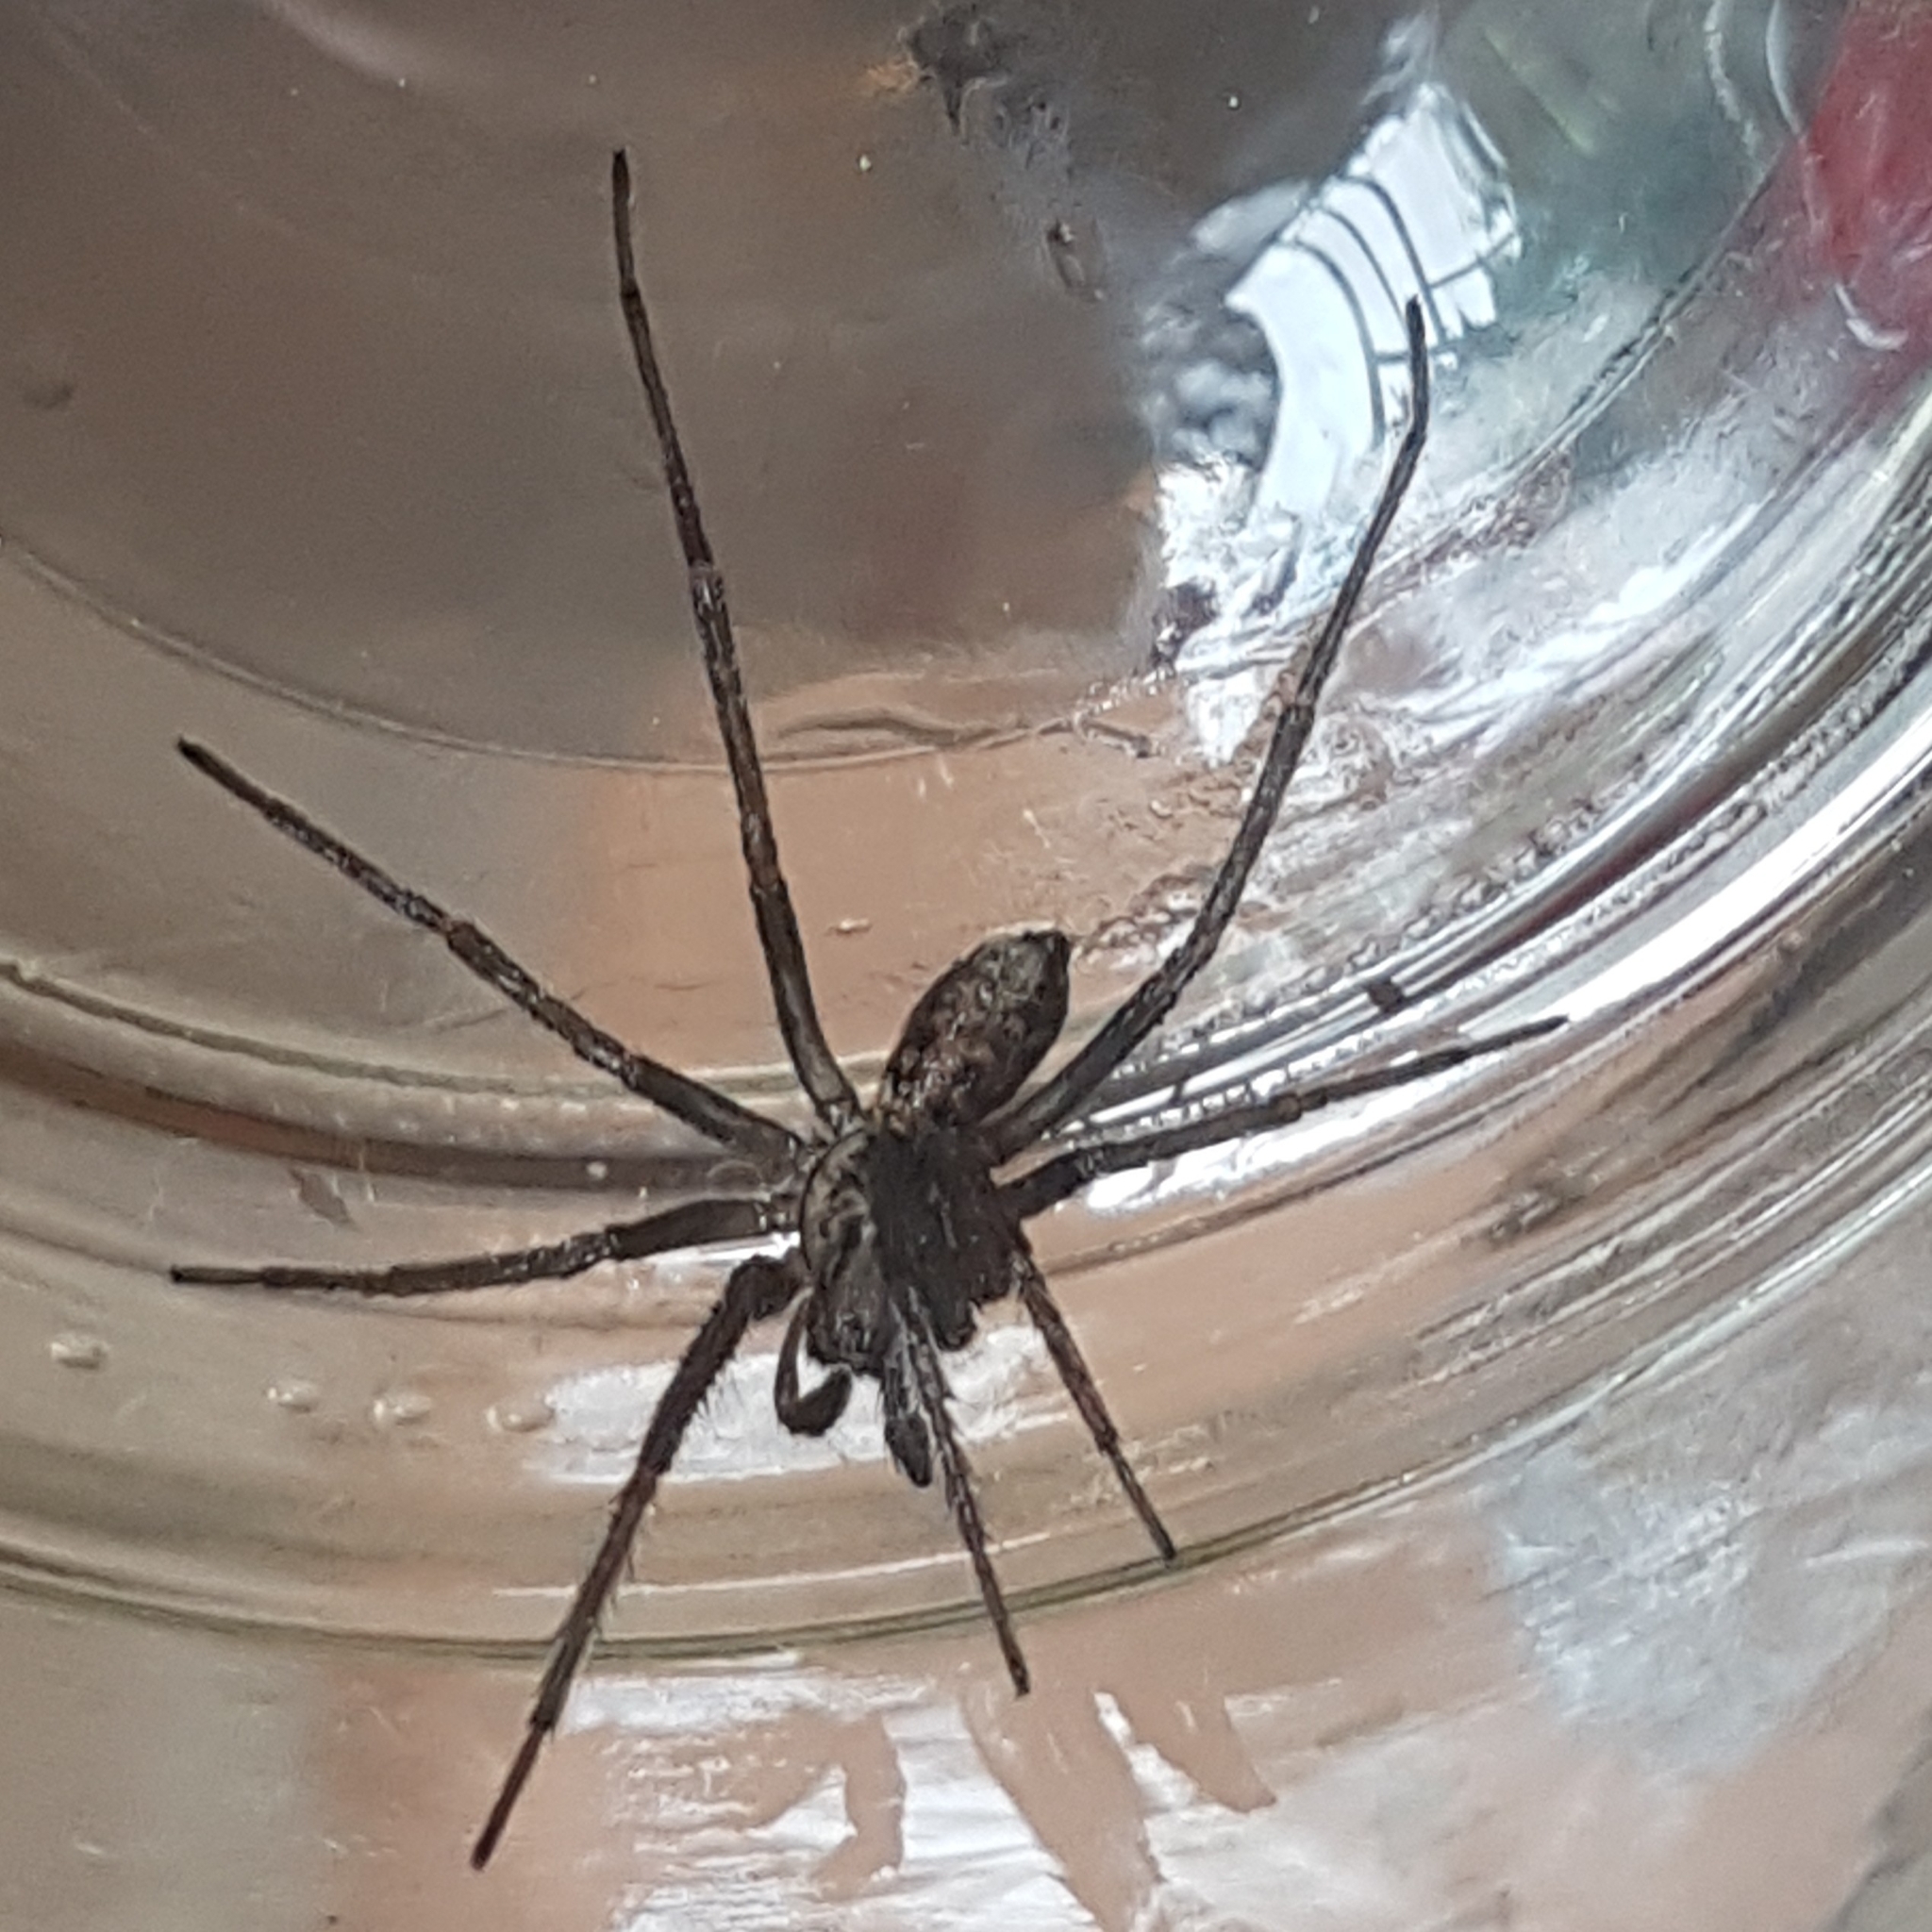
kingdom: Animalia
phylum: Arthropoda
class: Arachnida
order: Araneae
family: Agelenidae
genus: Eratigena
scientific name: Eratigena duellica
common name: Giant house spider
